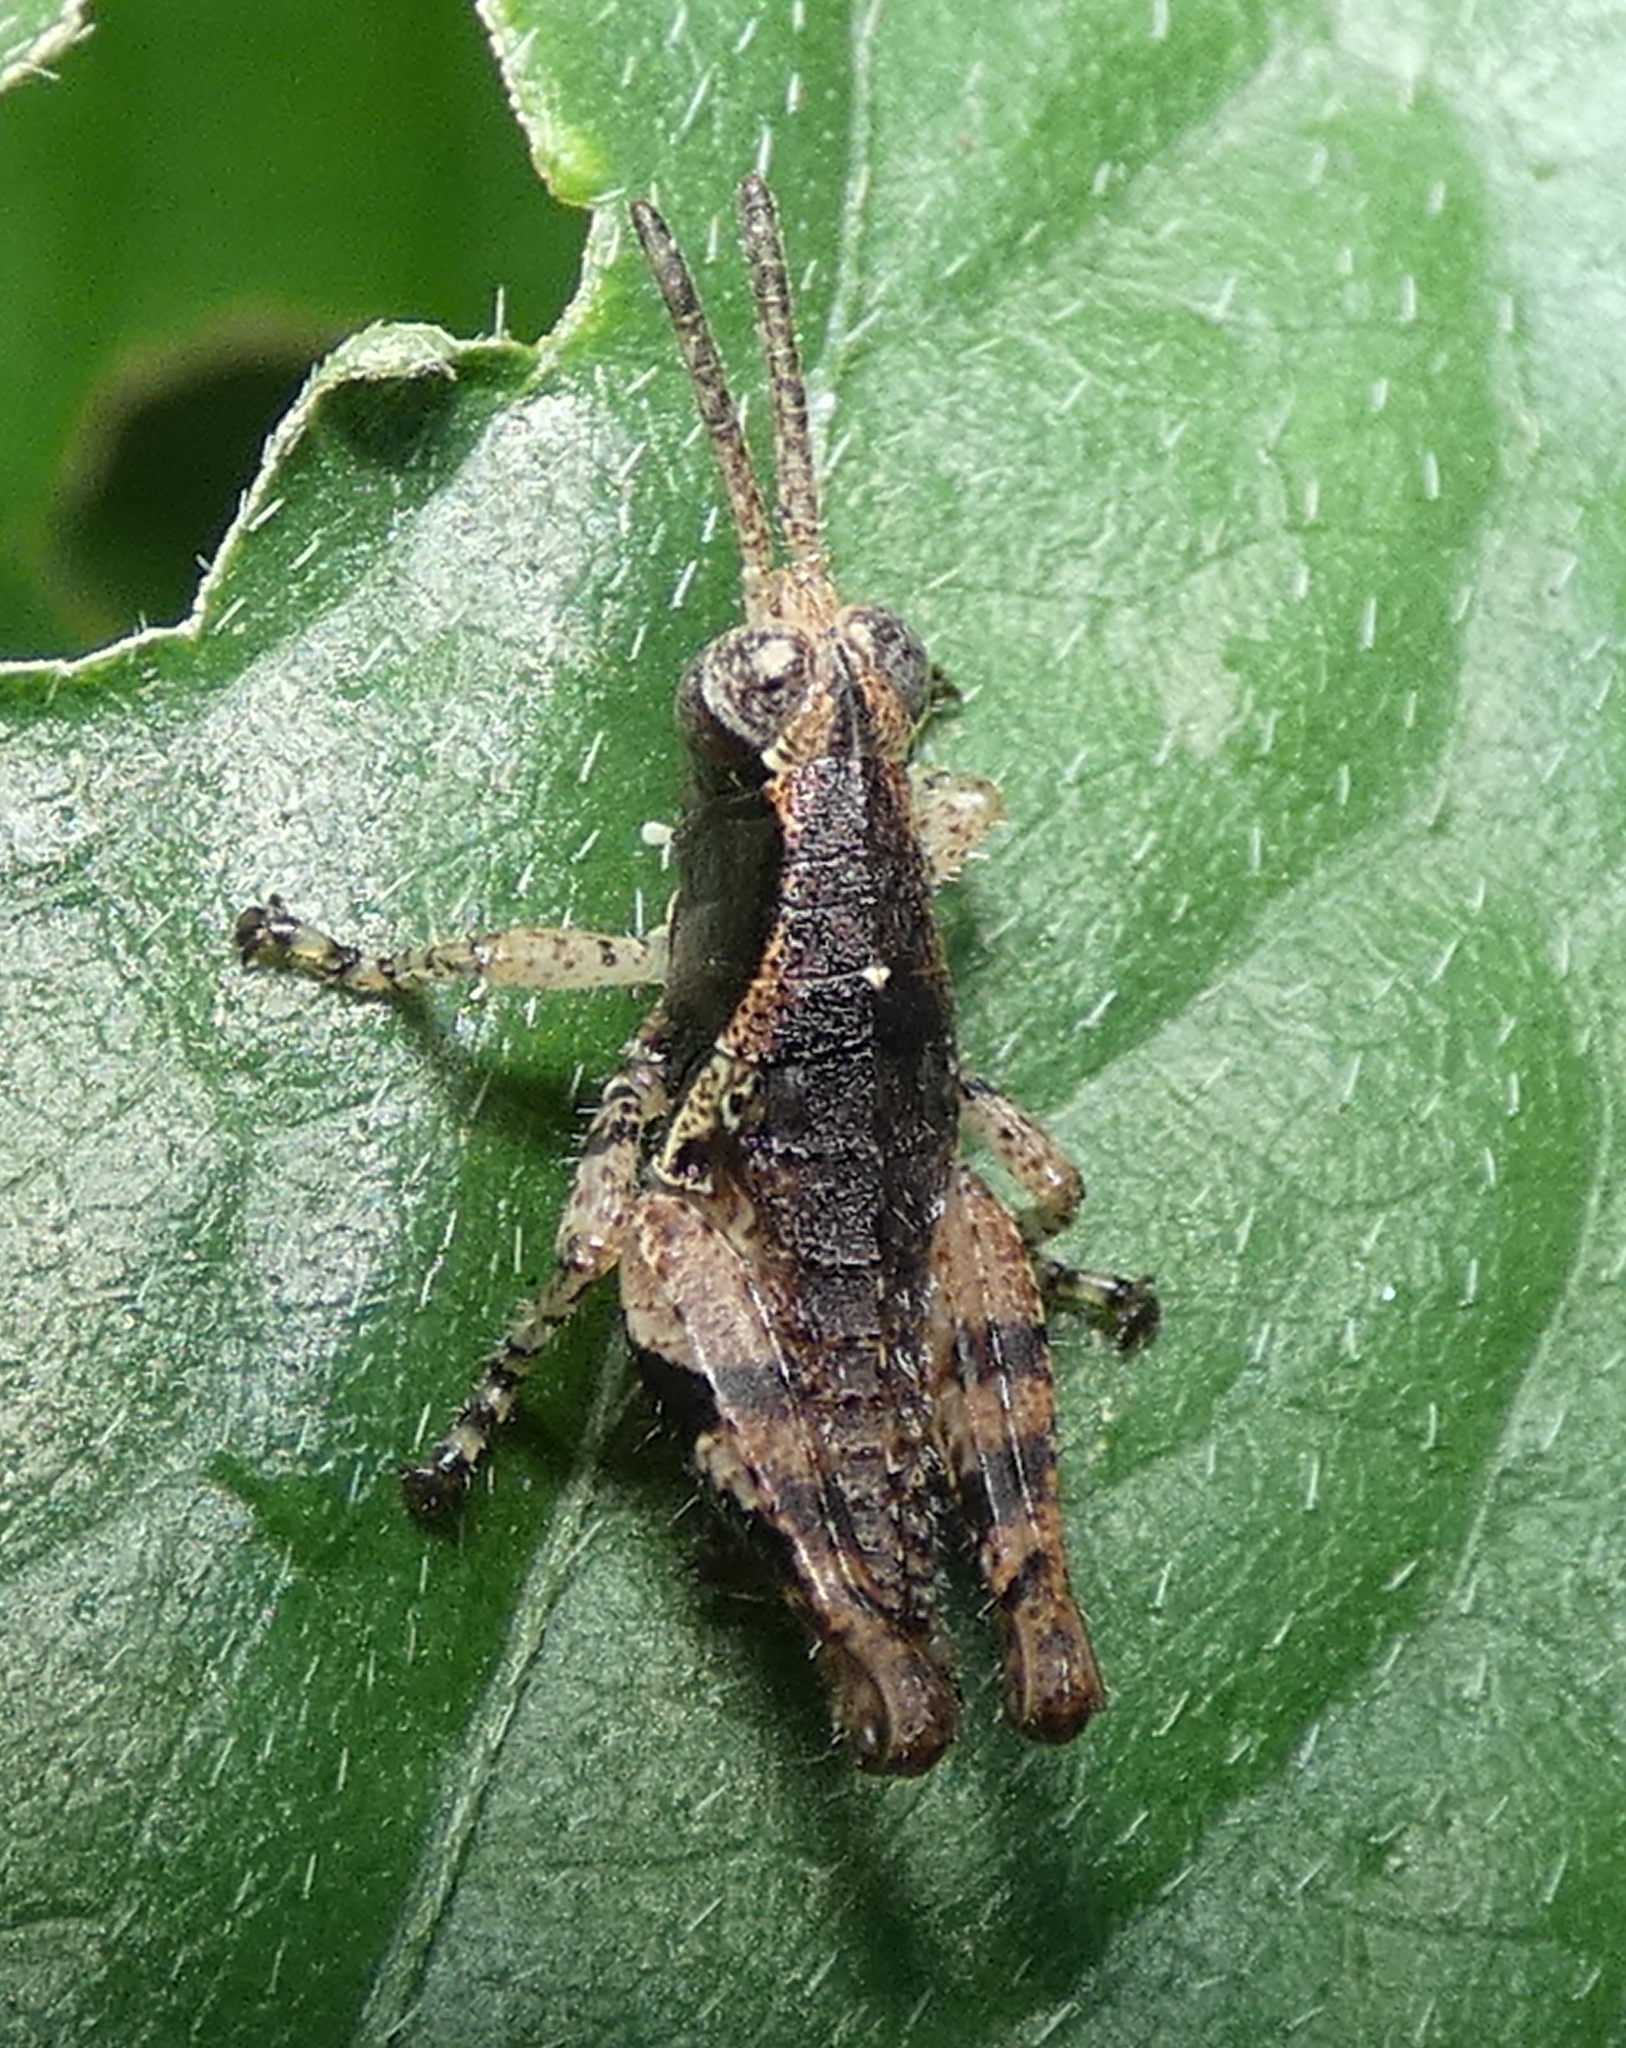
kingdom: Animalia
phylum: Arthropoda
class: Insecta
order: Orthoptera
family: Acrididae
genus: Eujivarus
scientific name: Eujivarus meridionalis
